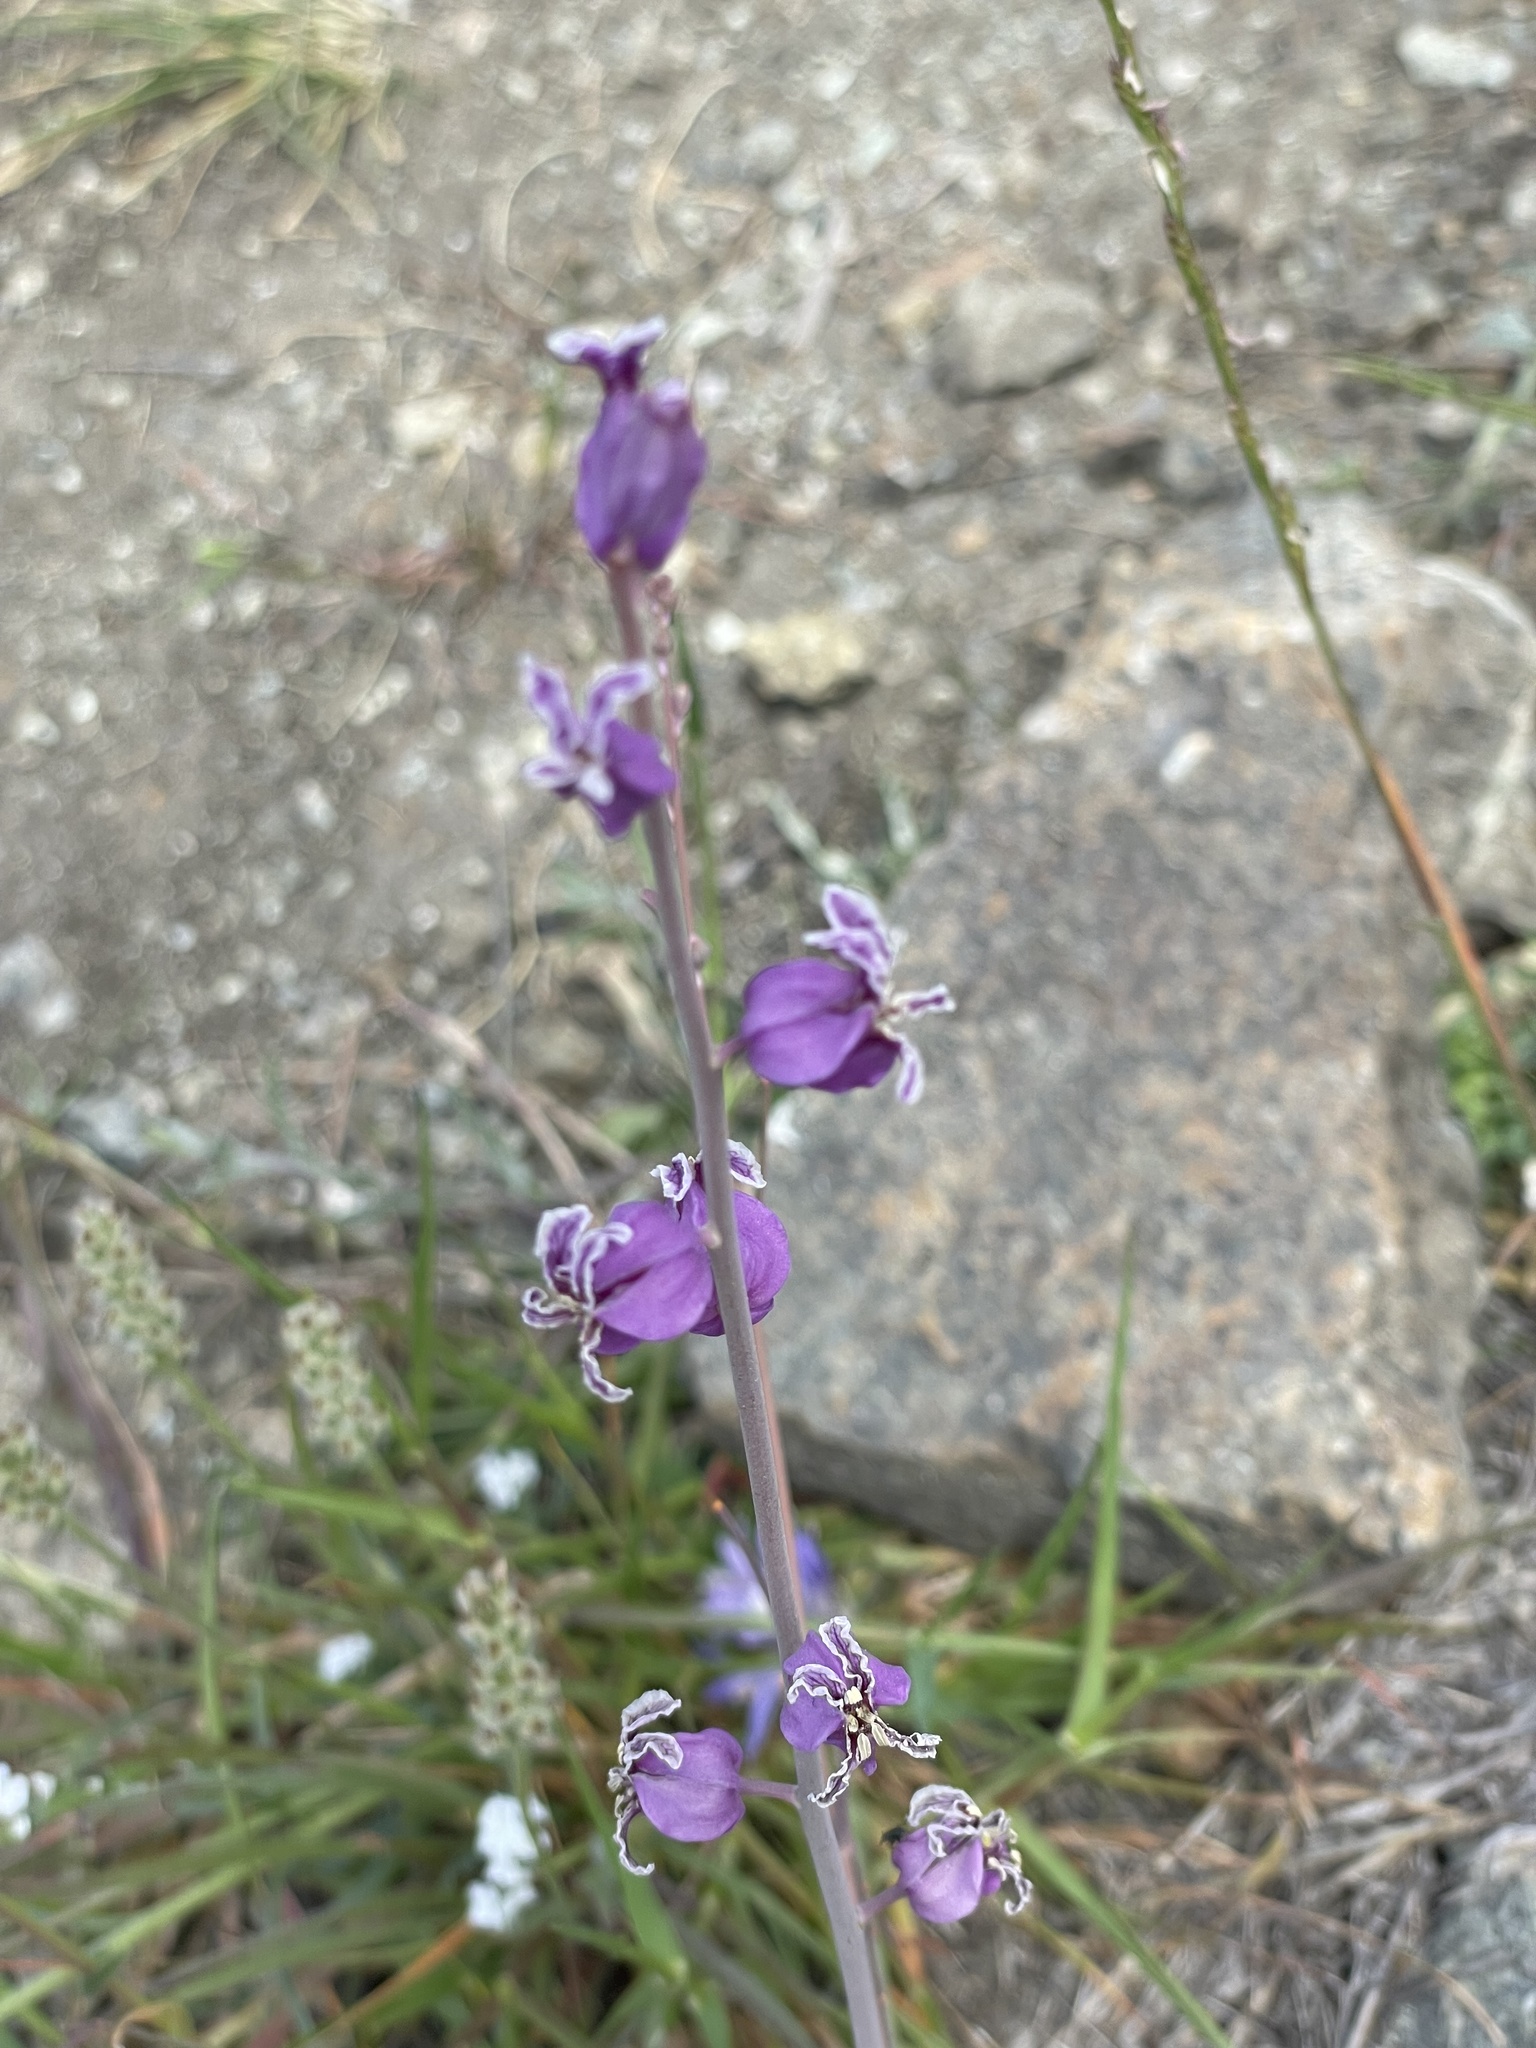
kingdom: Plantae
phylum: Tracheophyta
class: Magnoliopsida
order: Brassicales
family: Brassicaceae
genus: Streptanthus
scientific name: Streptanthus glandulosus
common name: Jewel-flower
